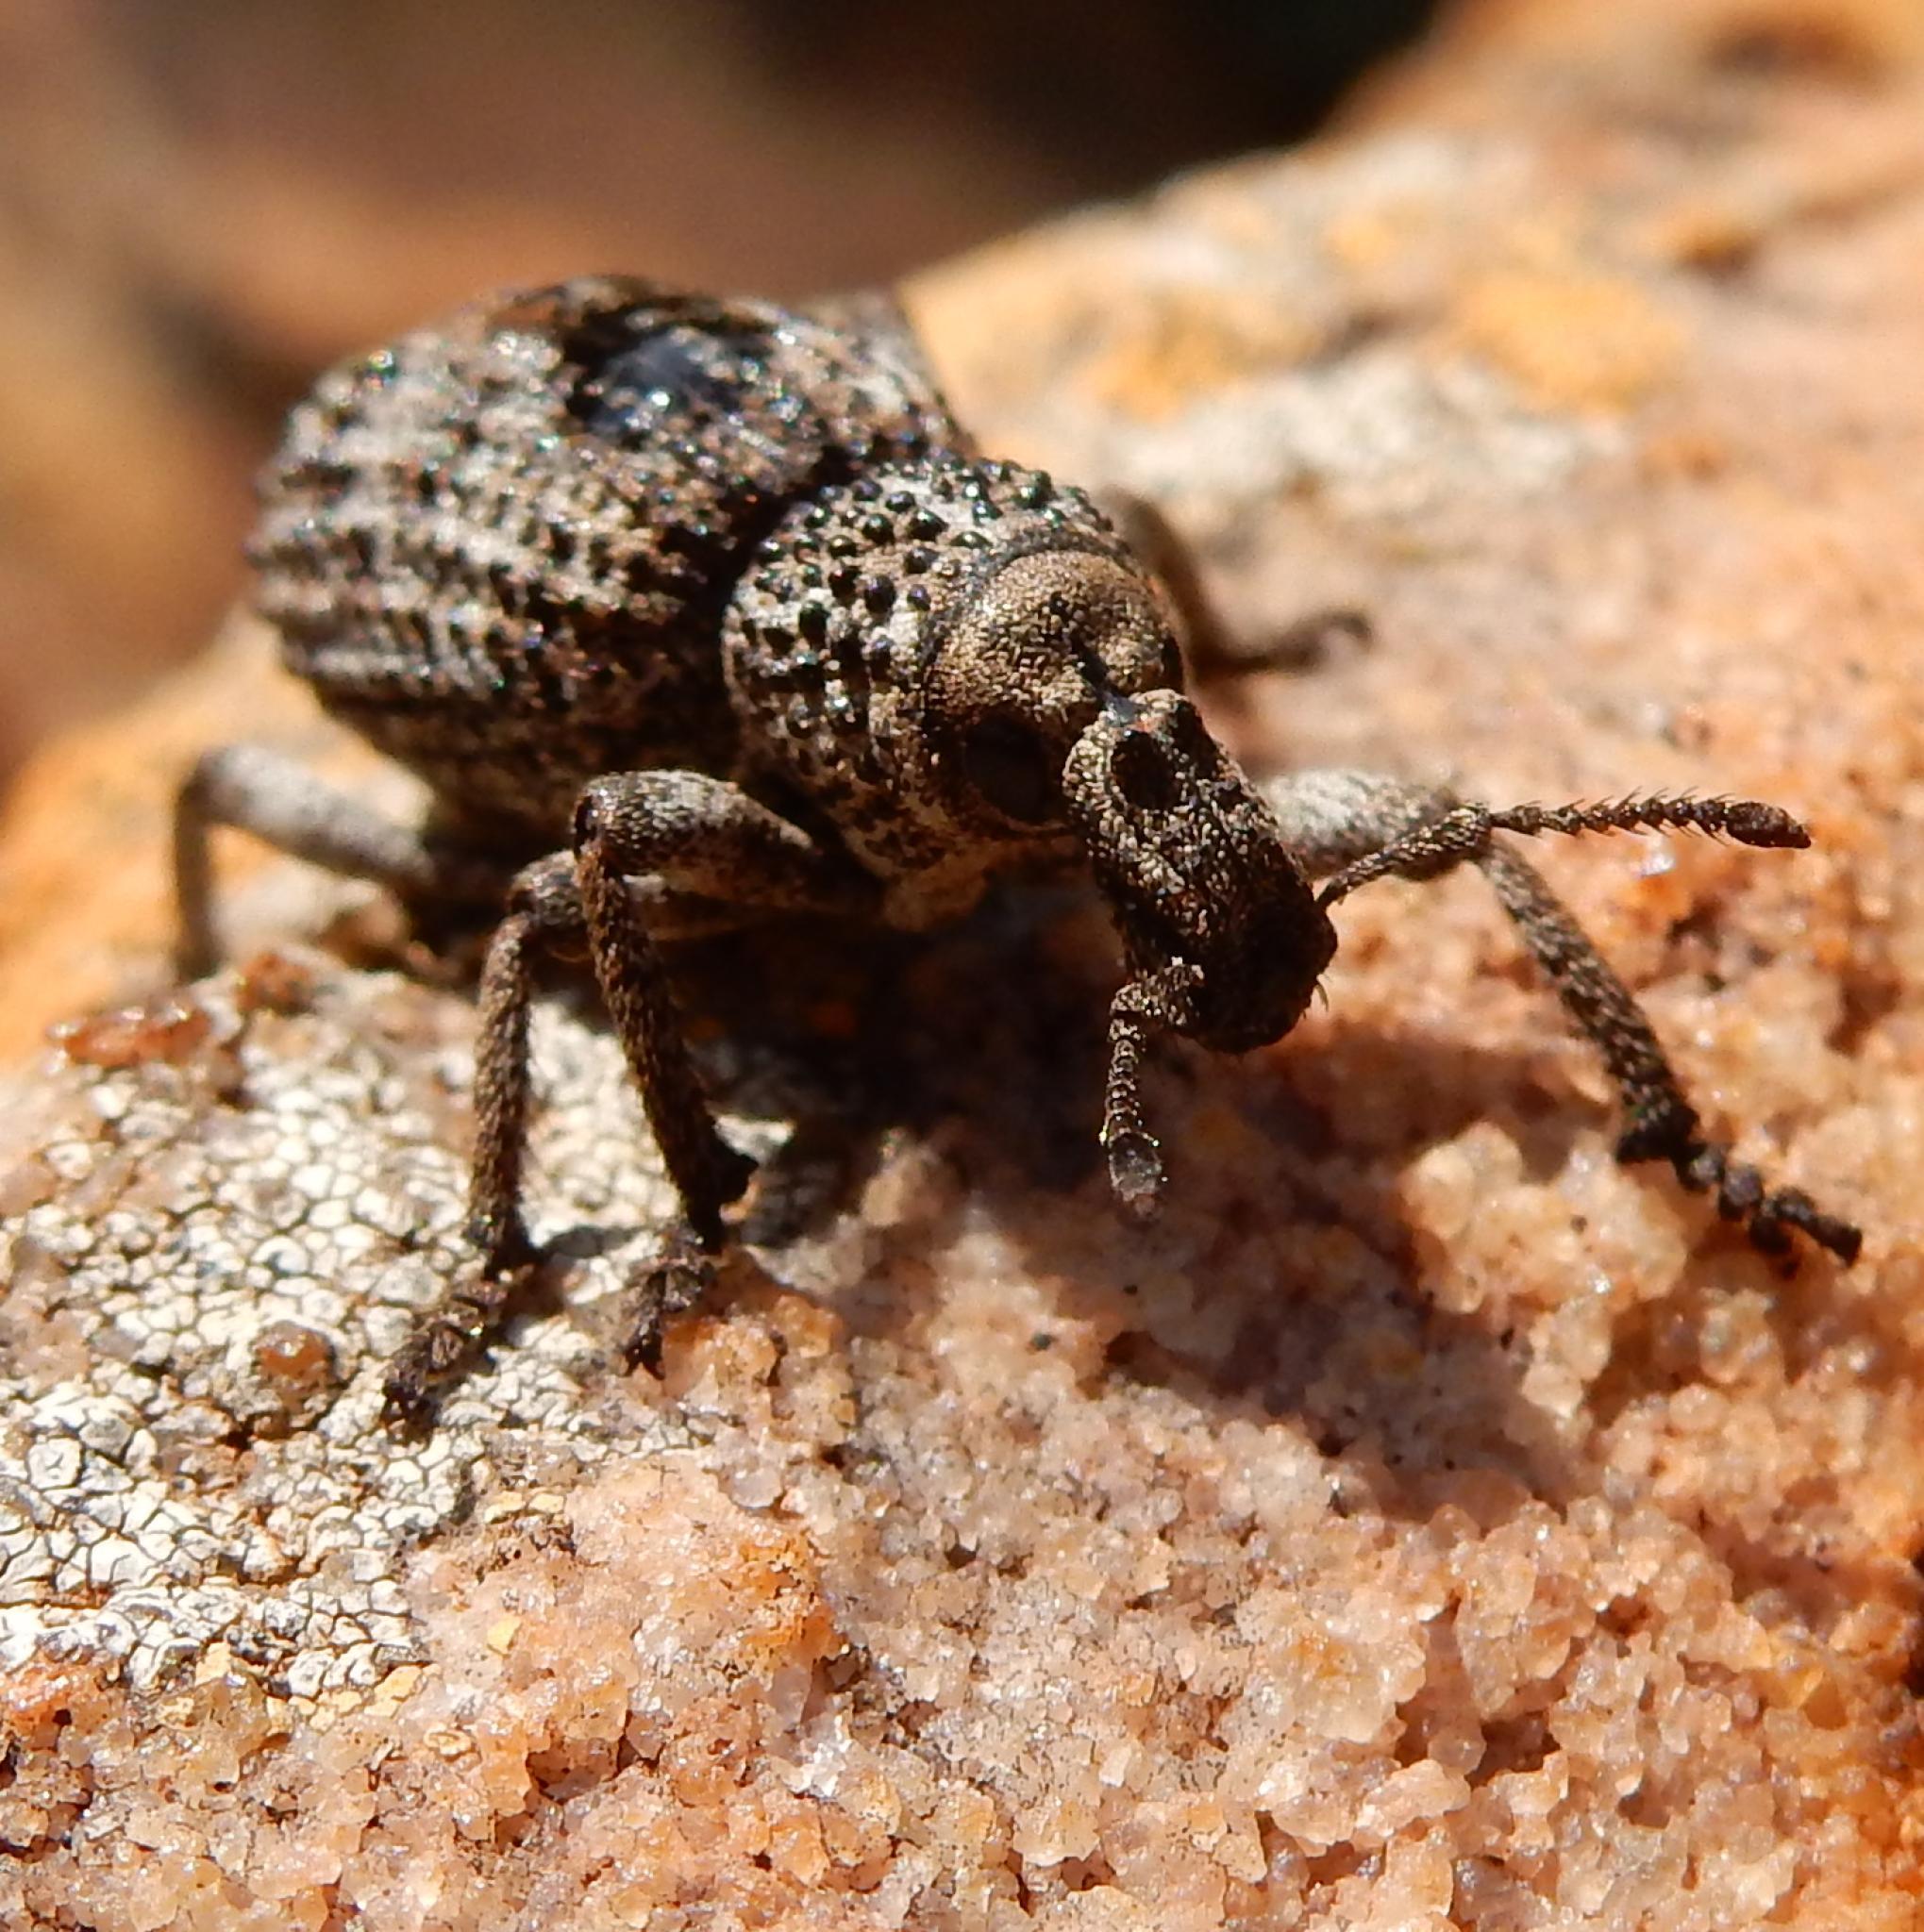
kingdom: Animalia
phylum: Arthropoda
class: Insecta
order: Coleoptera
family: Curculionidae
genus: Bronchus
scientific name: Bronchus
